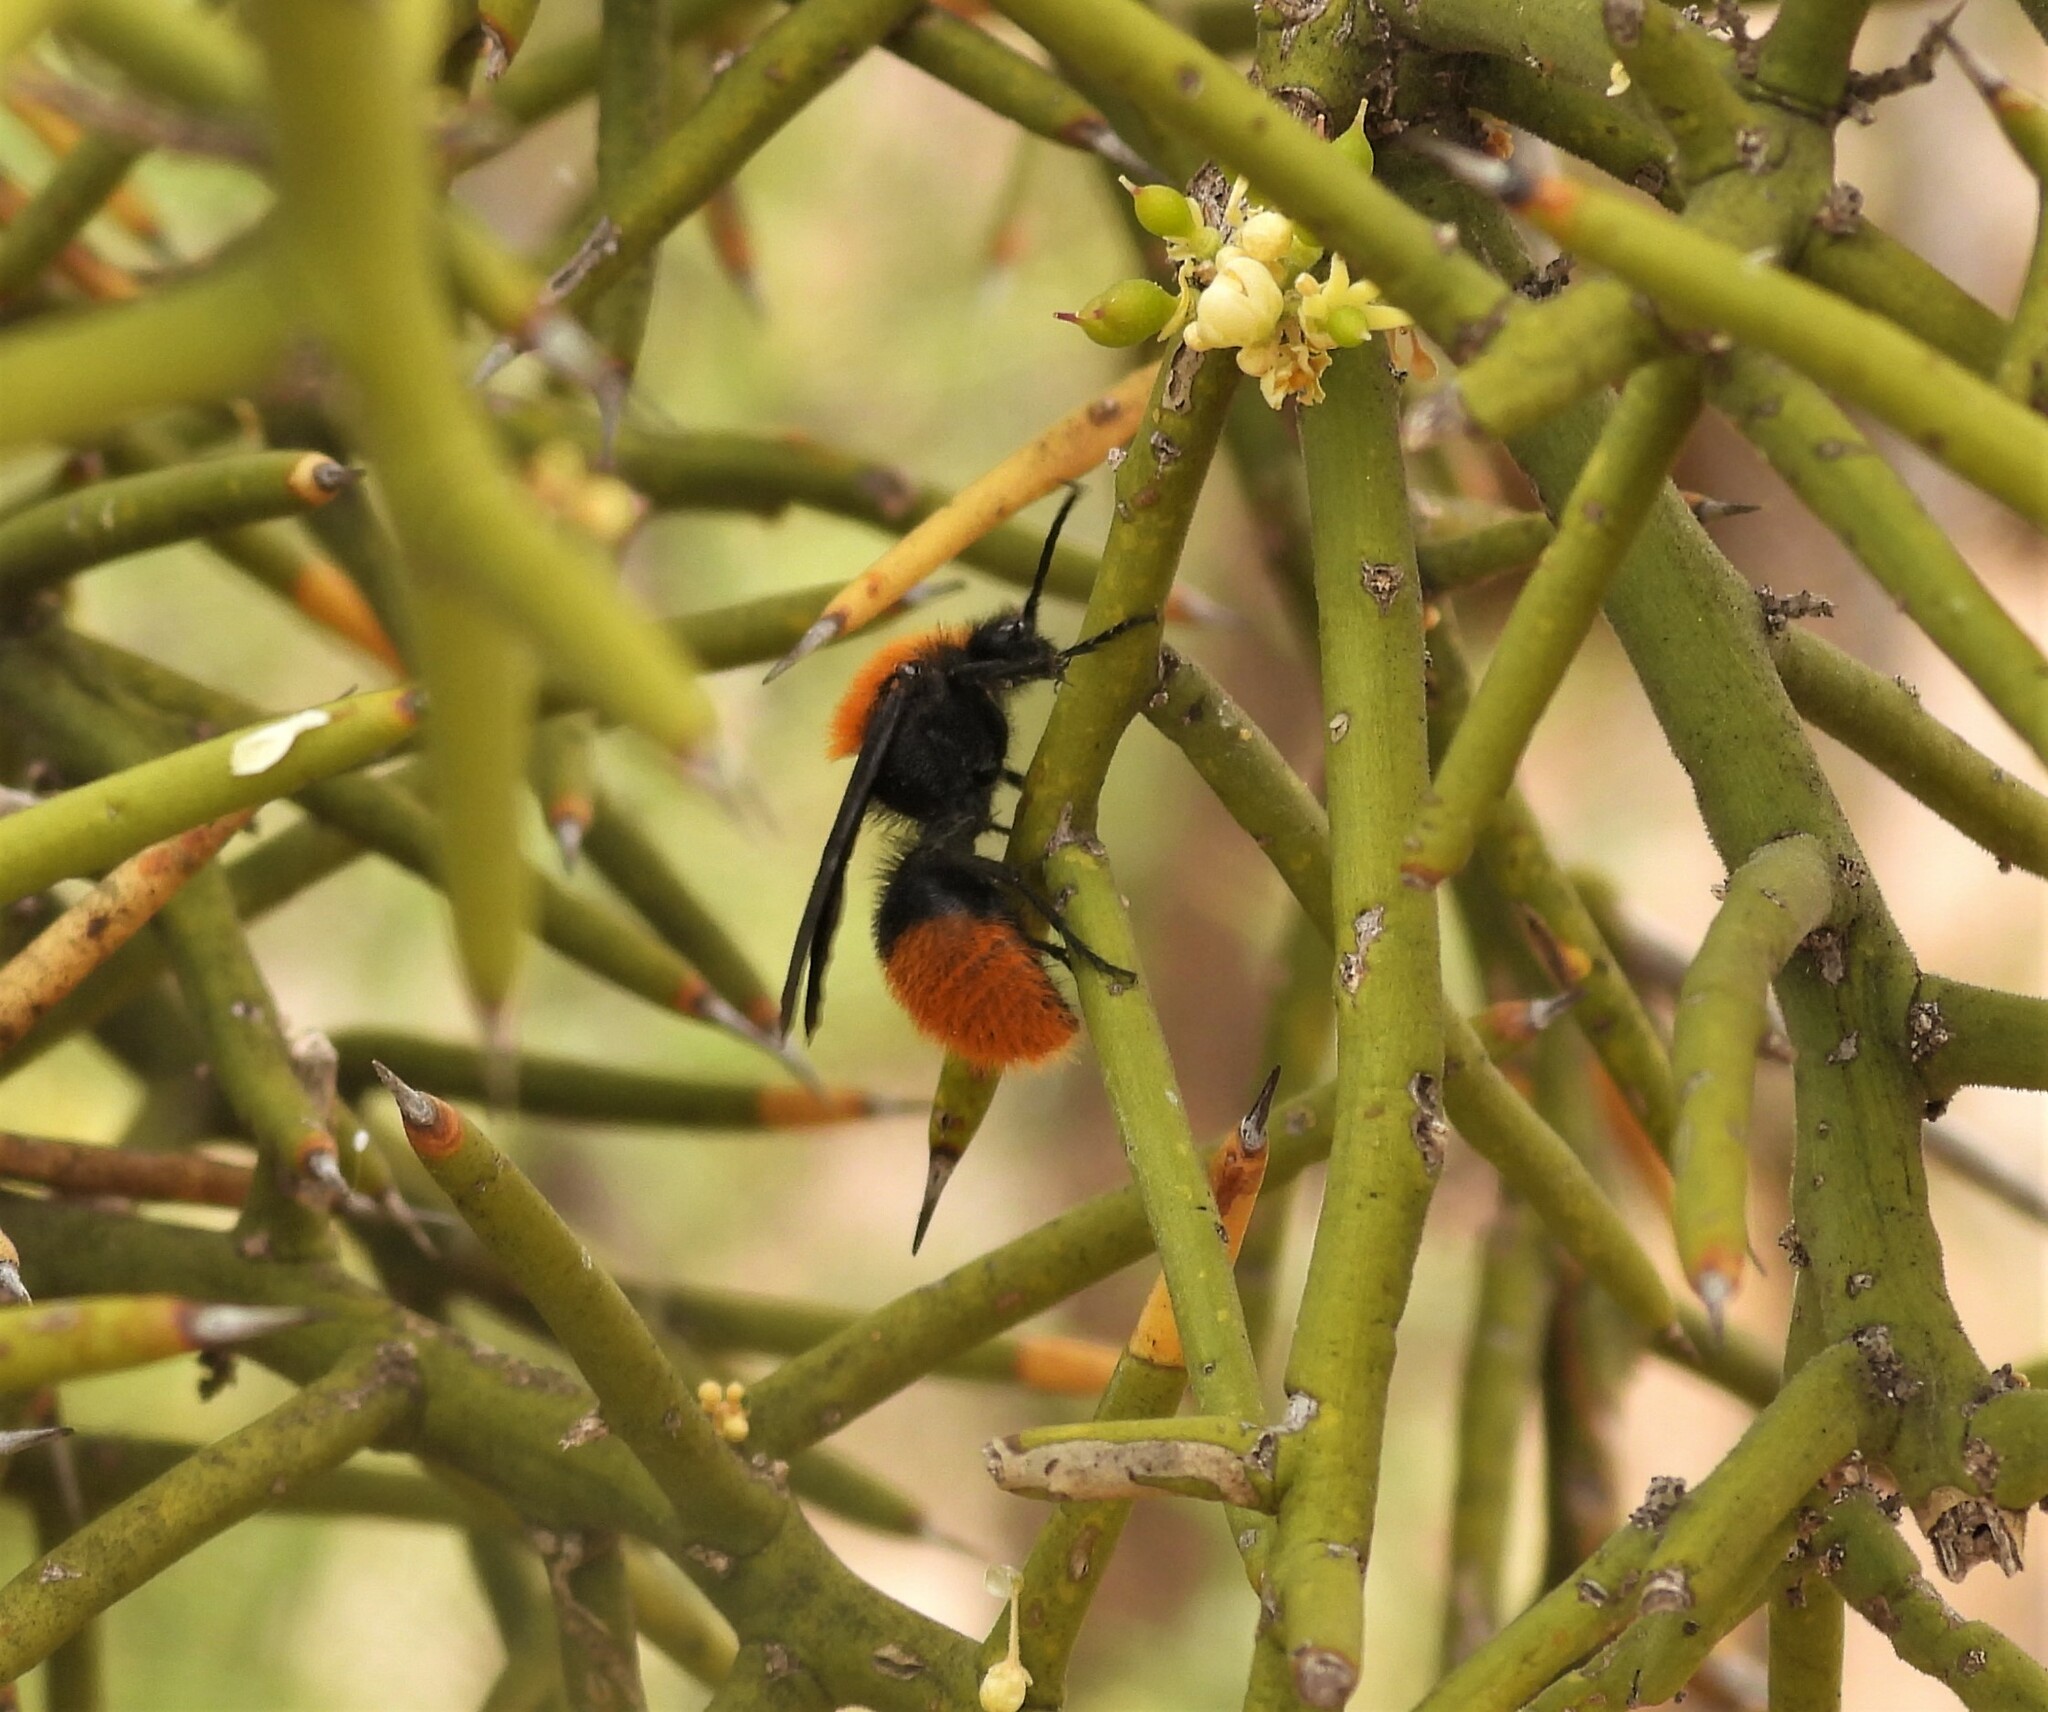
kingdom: Animalia
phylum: Arthropoda
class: Insecta
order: Hymenoptera
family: Mutillidae
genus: Dasymutilla
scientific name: Dasymutilla vestita
